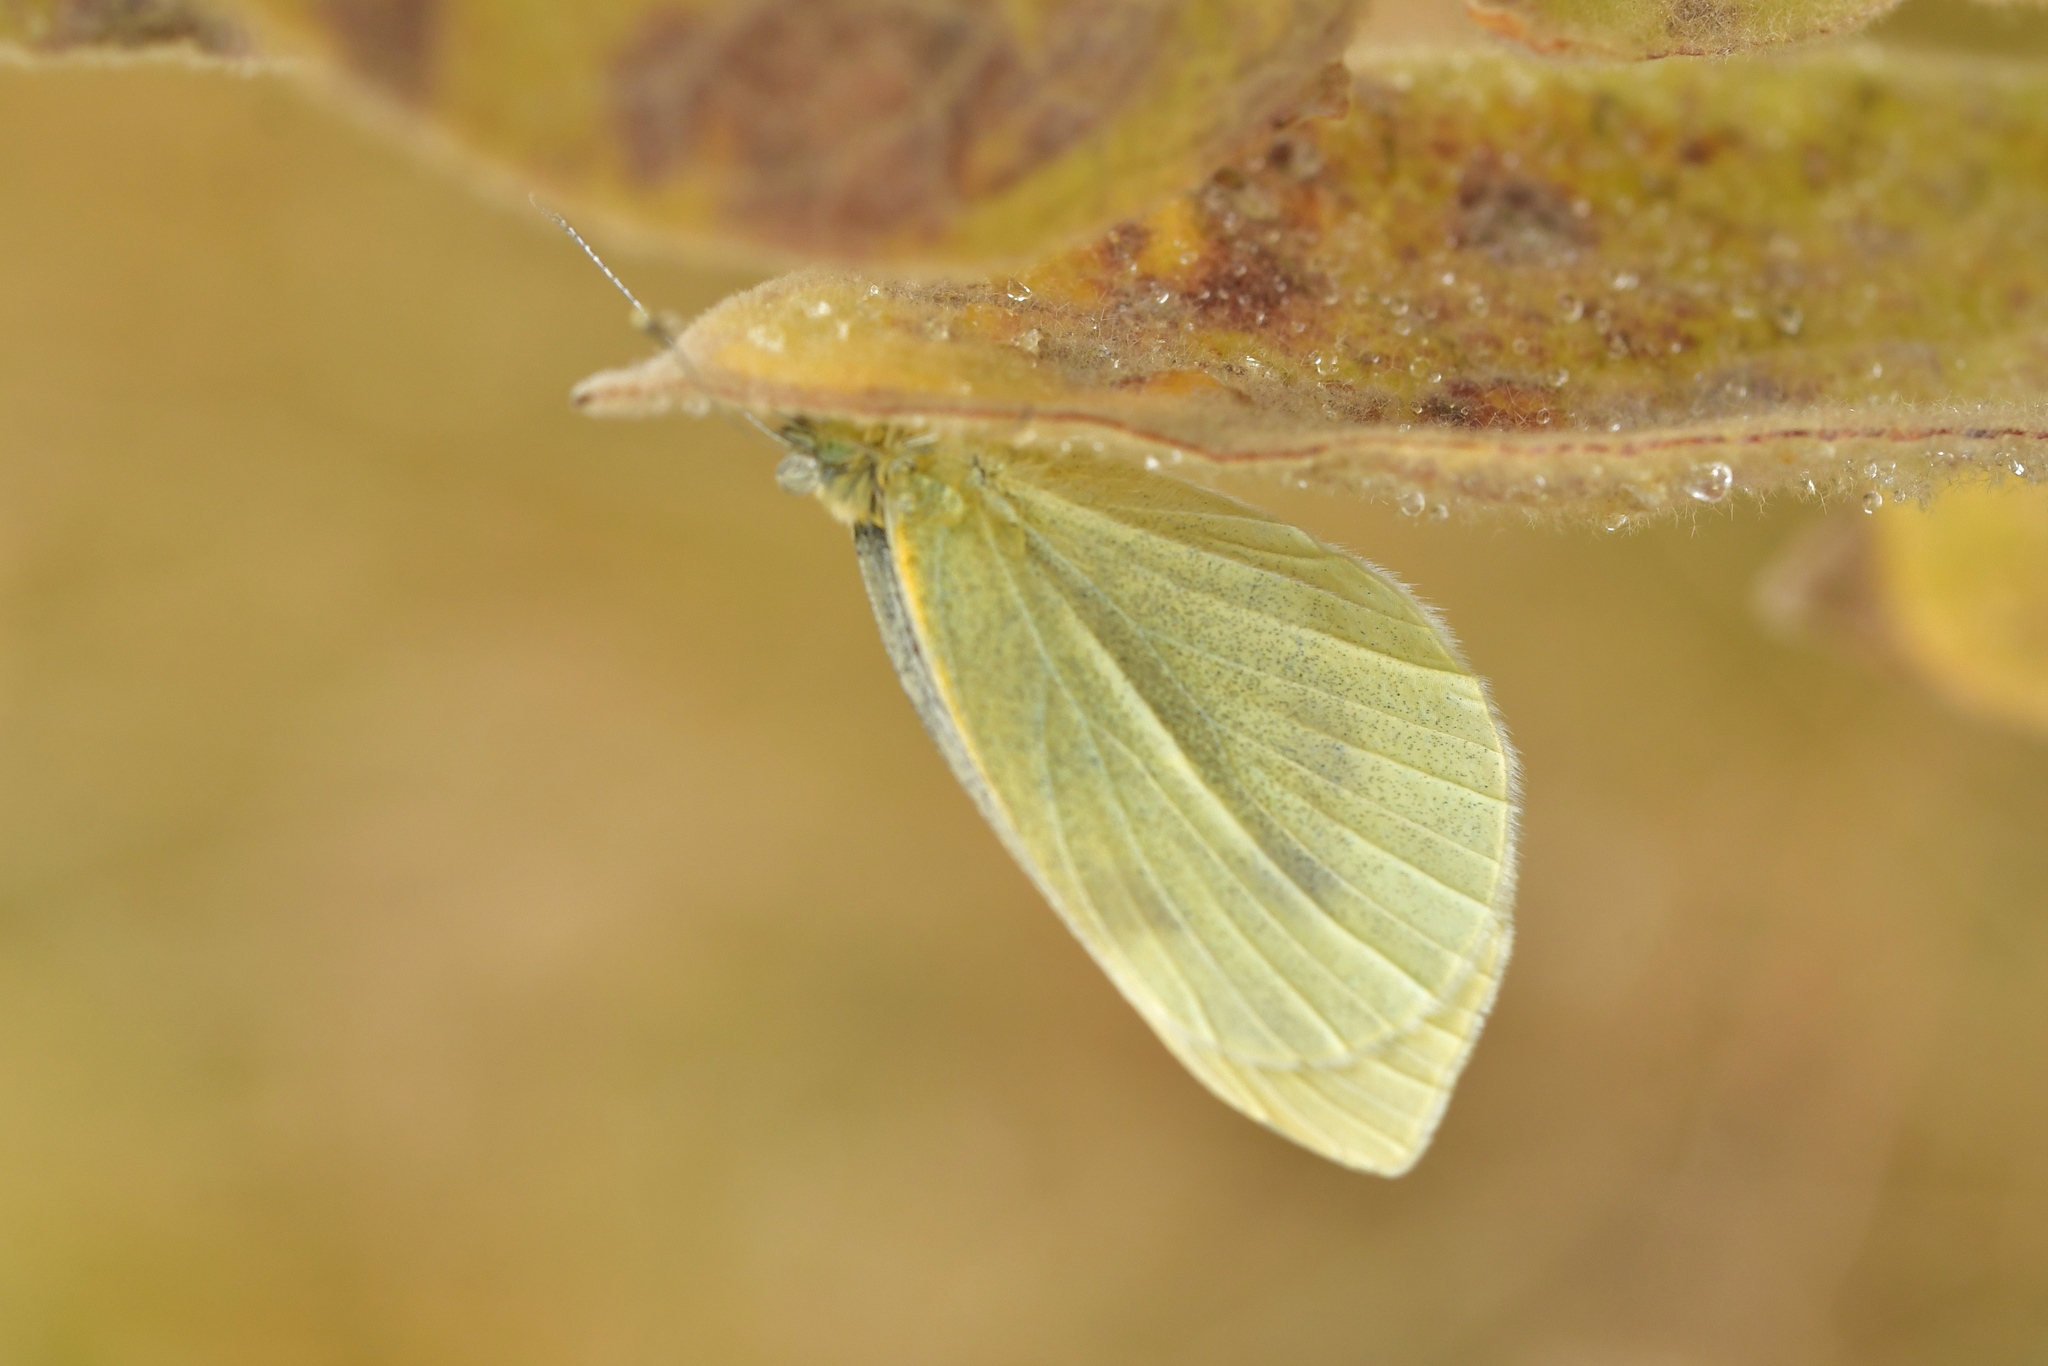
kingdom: Animalia
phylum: Arthropoda
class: Insecta
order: Lepidoptera
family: Pieridae
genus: Pieris
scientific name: Pieris rapae
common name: Small white
